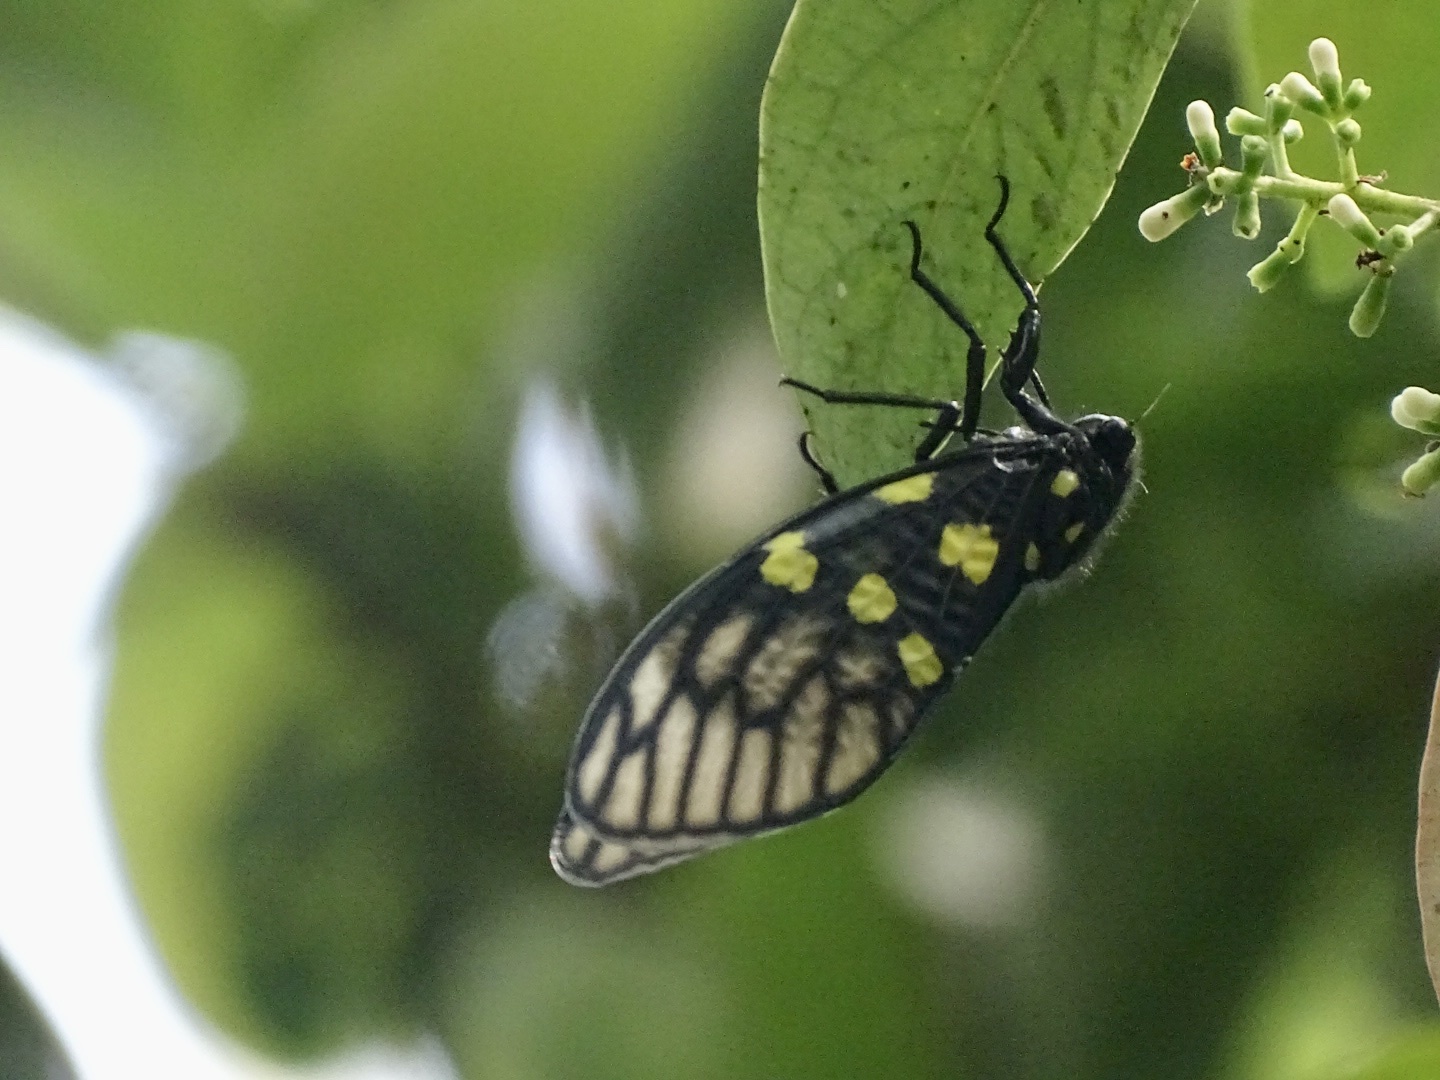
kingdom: Animalia
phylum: Arthropoda
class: Insecta
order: Hemiptera
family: Cicadidae
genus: Gaeana
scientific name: Gaeana maculata
